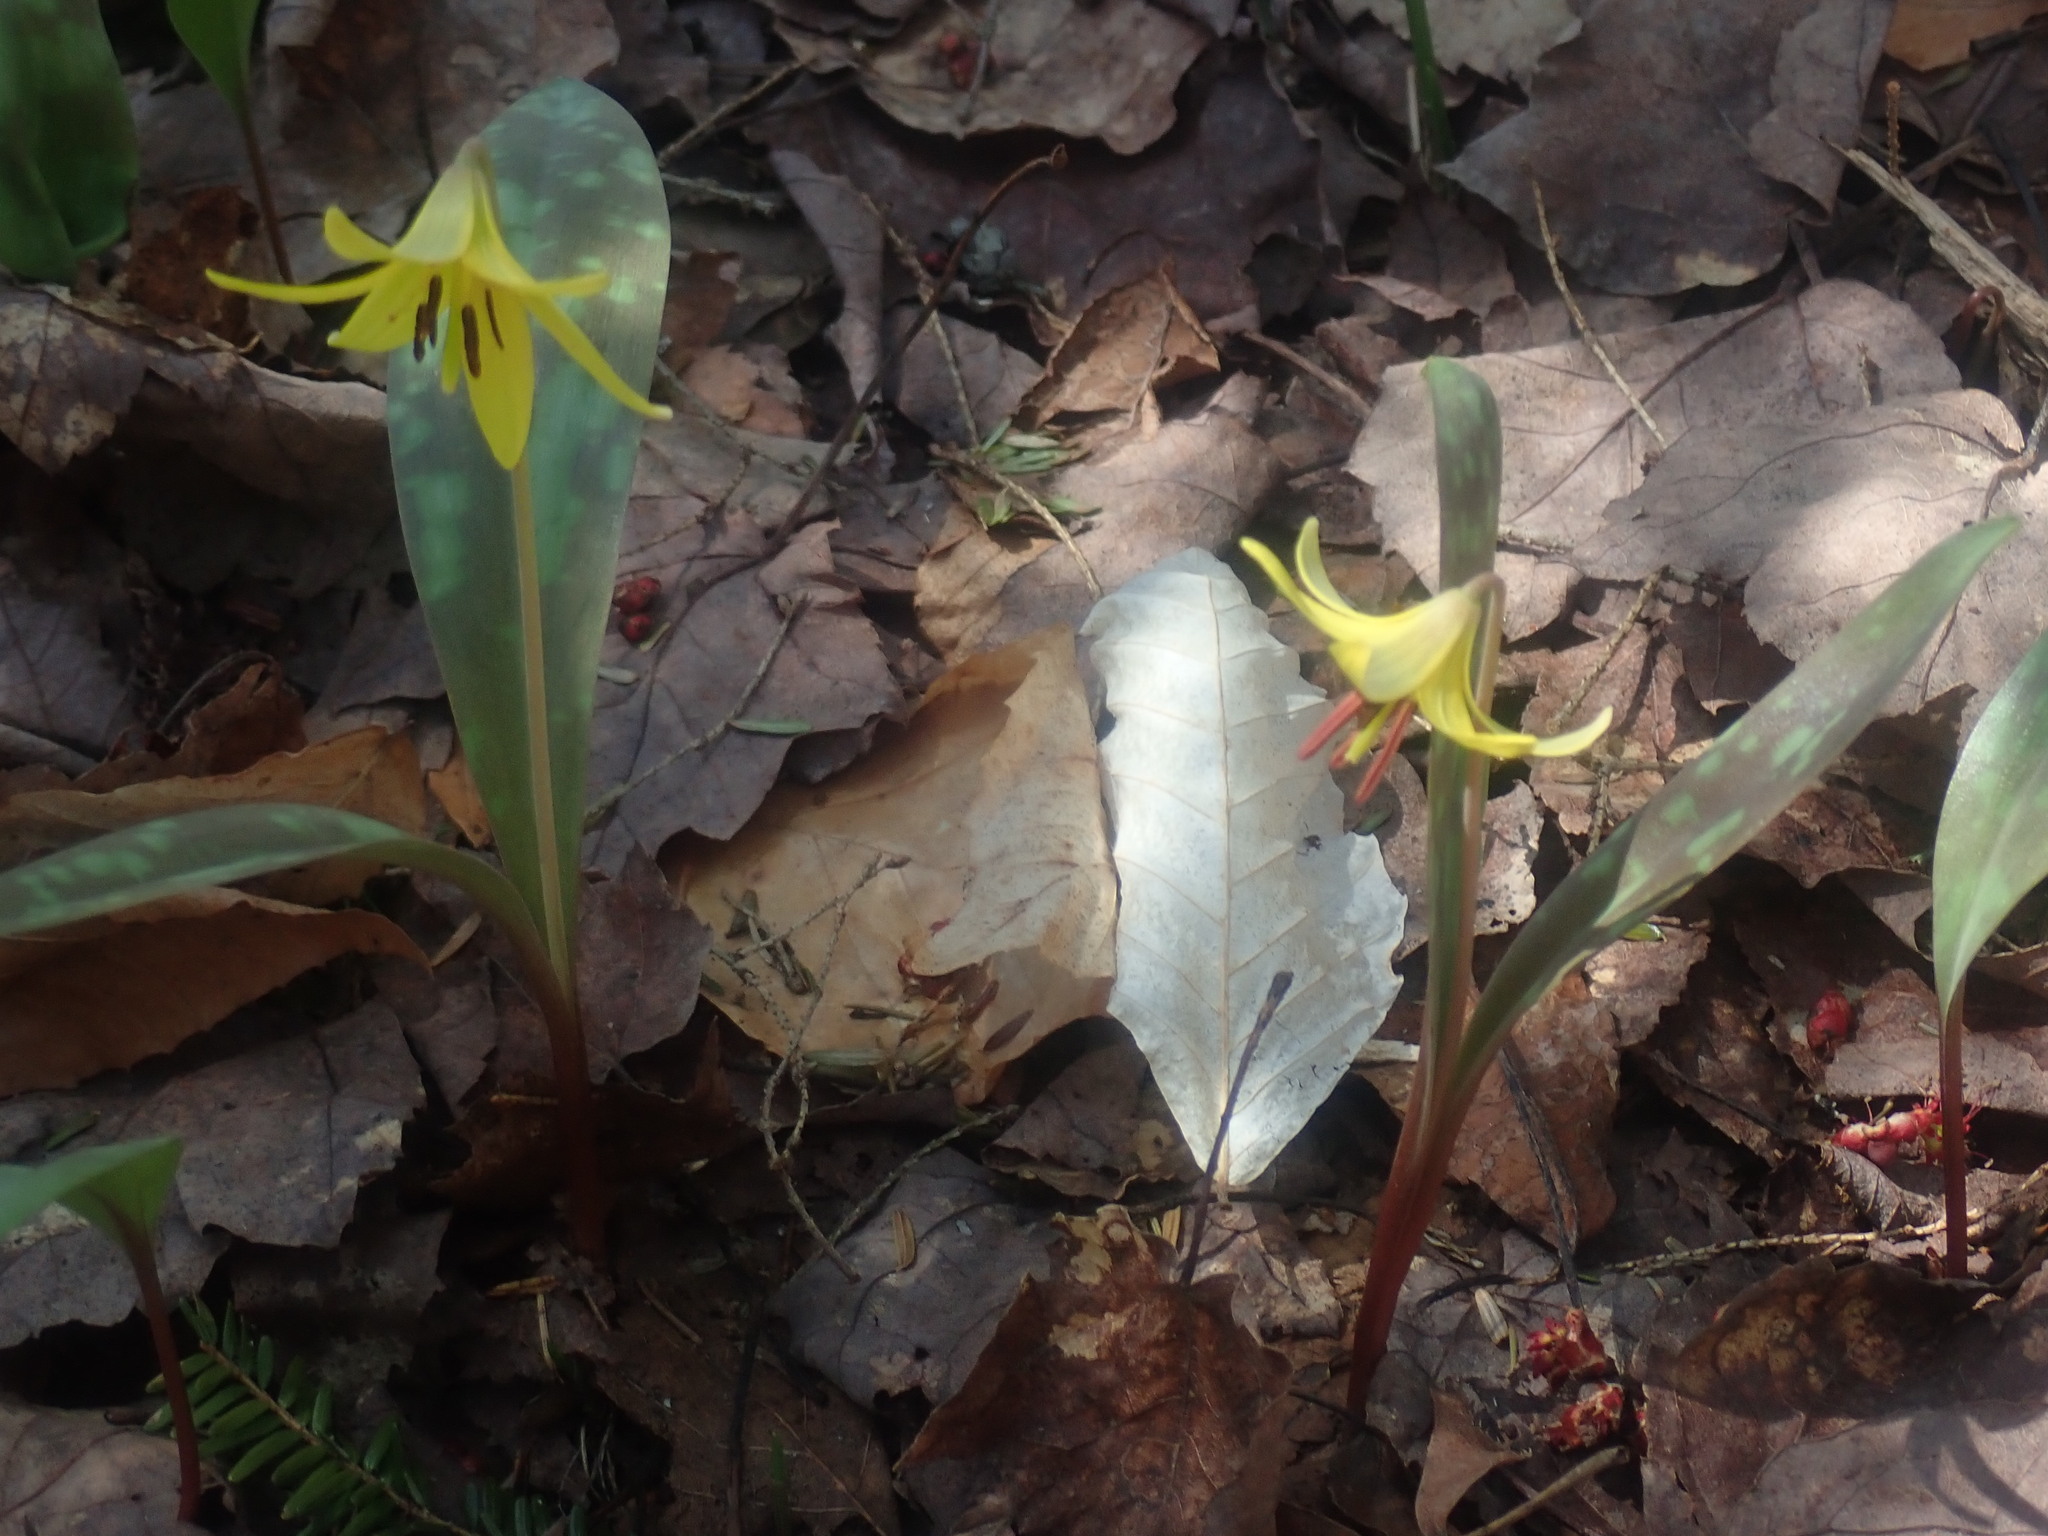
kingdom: Plantae
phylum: Tracheophyta
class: Liliopsida
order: Liliales
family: Liliaceae
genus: Erythronium
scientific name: Erythronium americanum
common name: Yellow adder's-tongue
